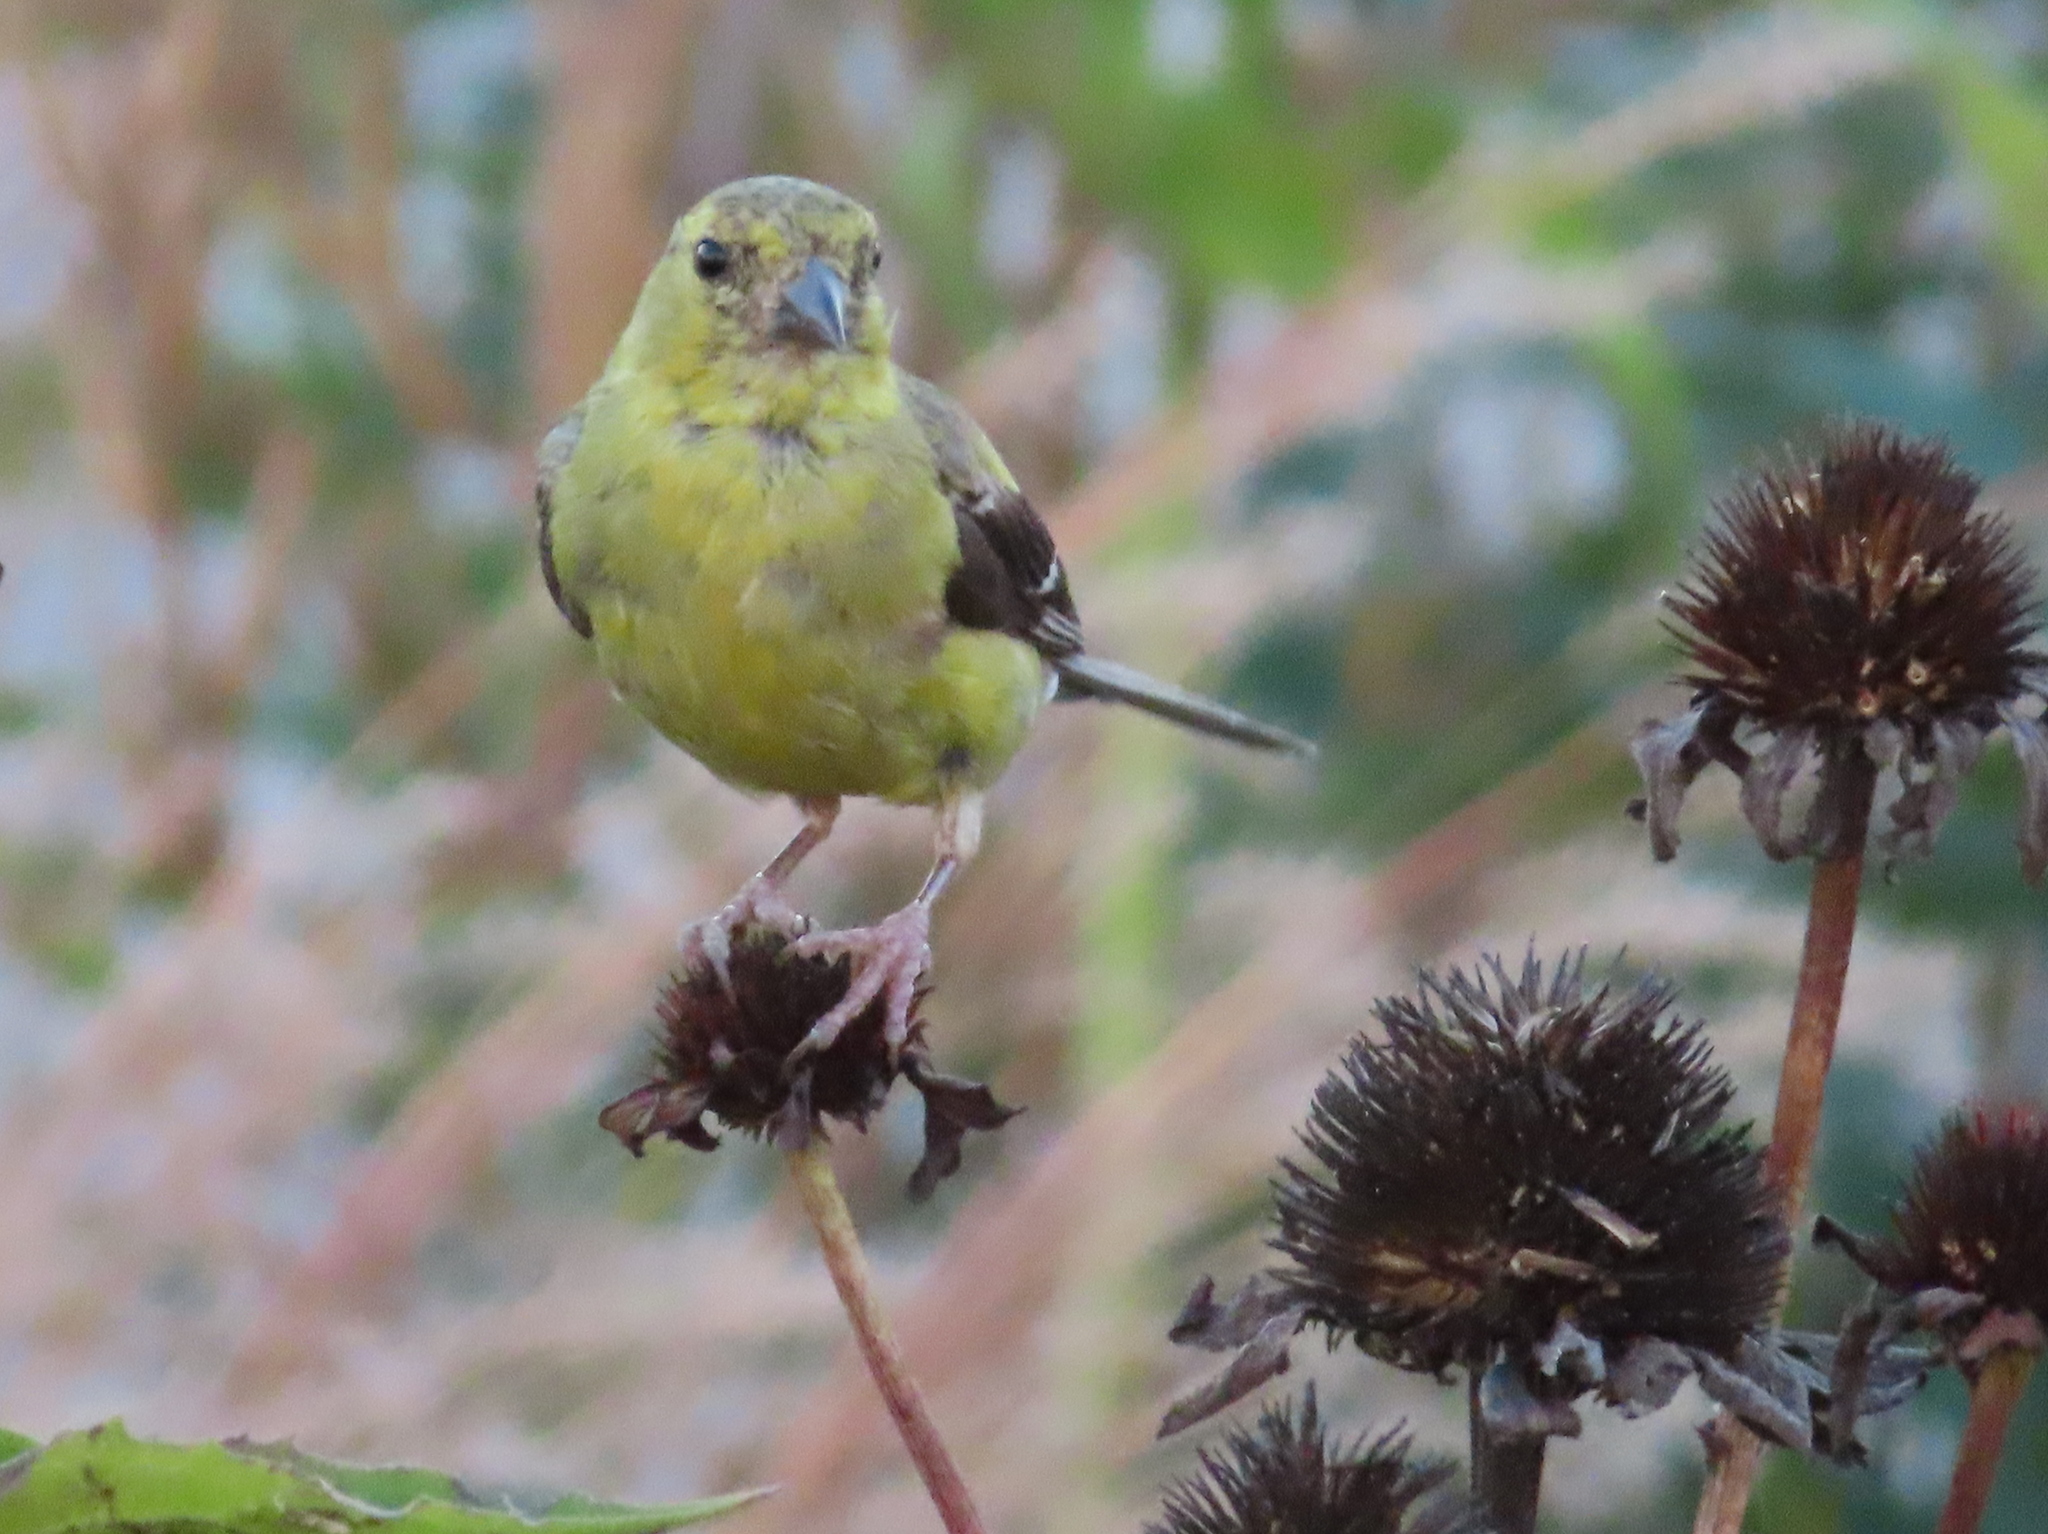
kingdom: Animalia
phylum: Chordata
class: Aves
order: Passeriformes
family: Fringillidae
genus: Spinus
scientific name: Spinus tristis
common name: American goldfinch
